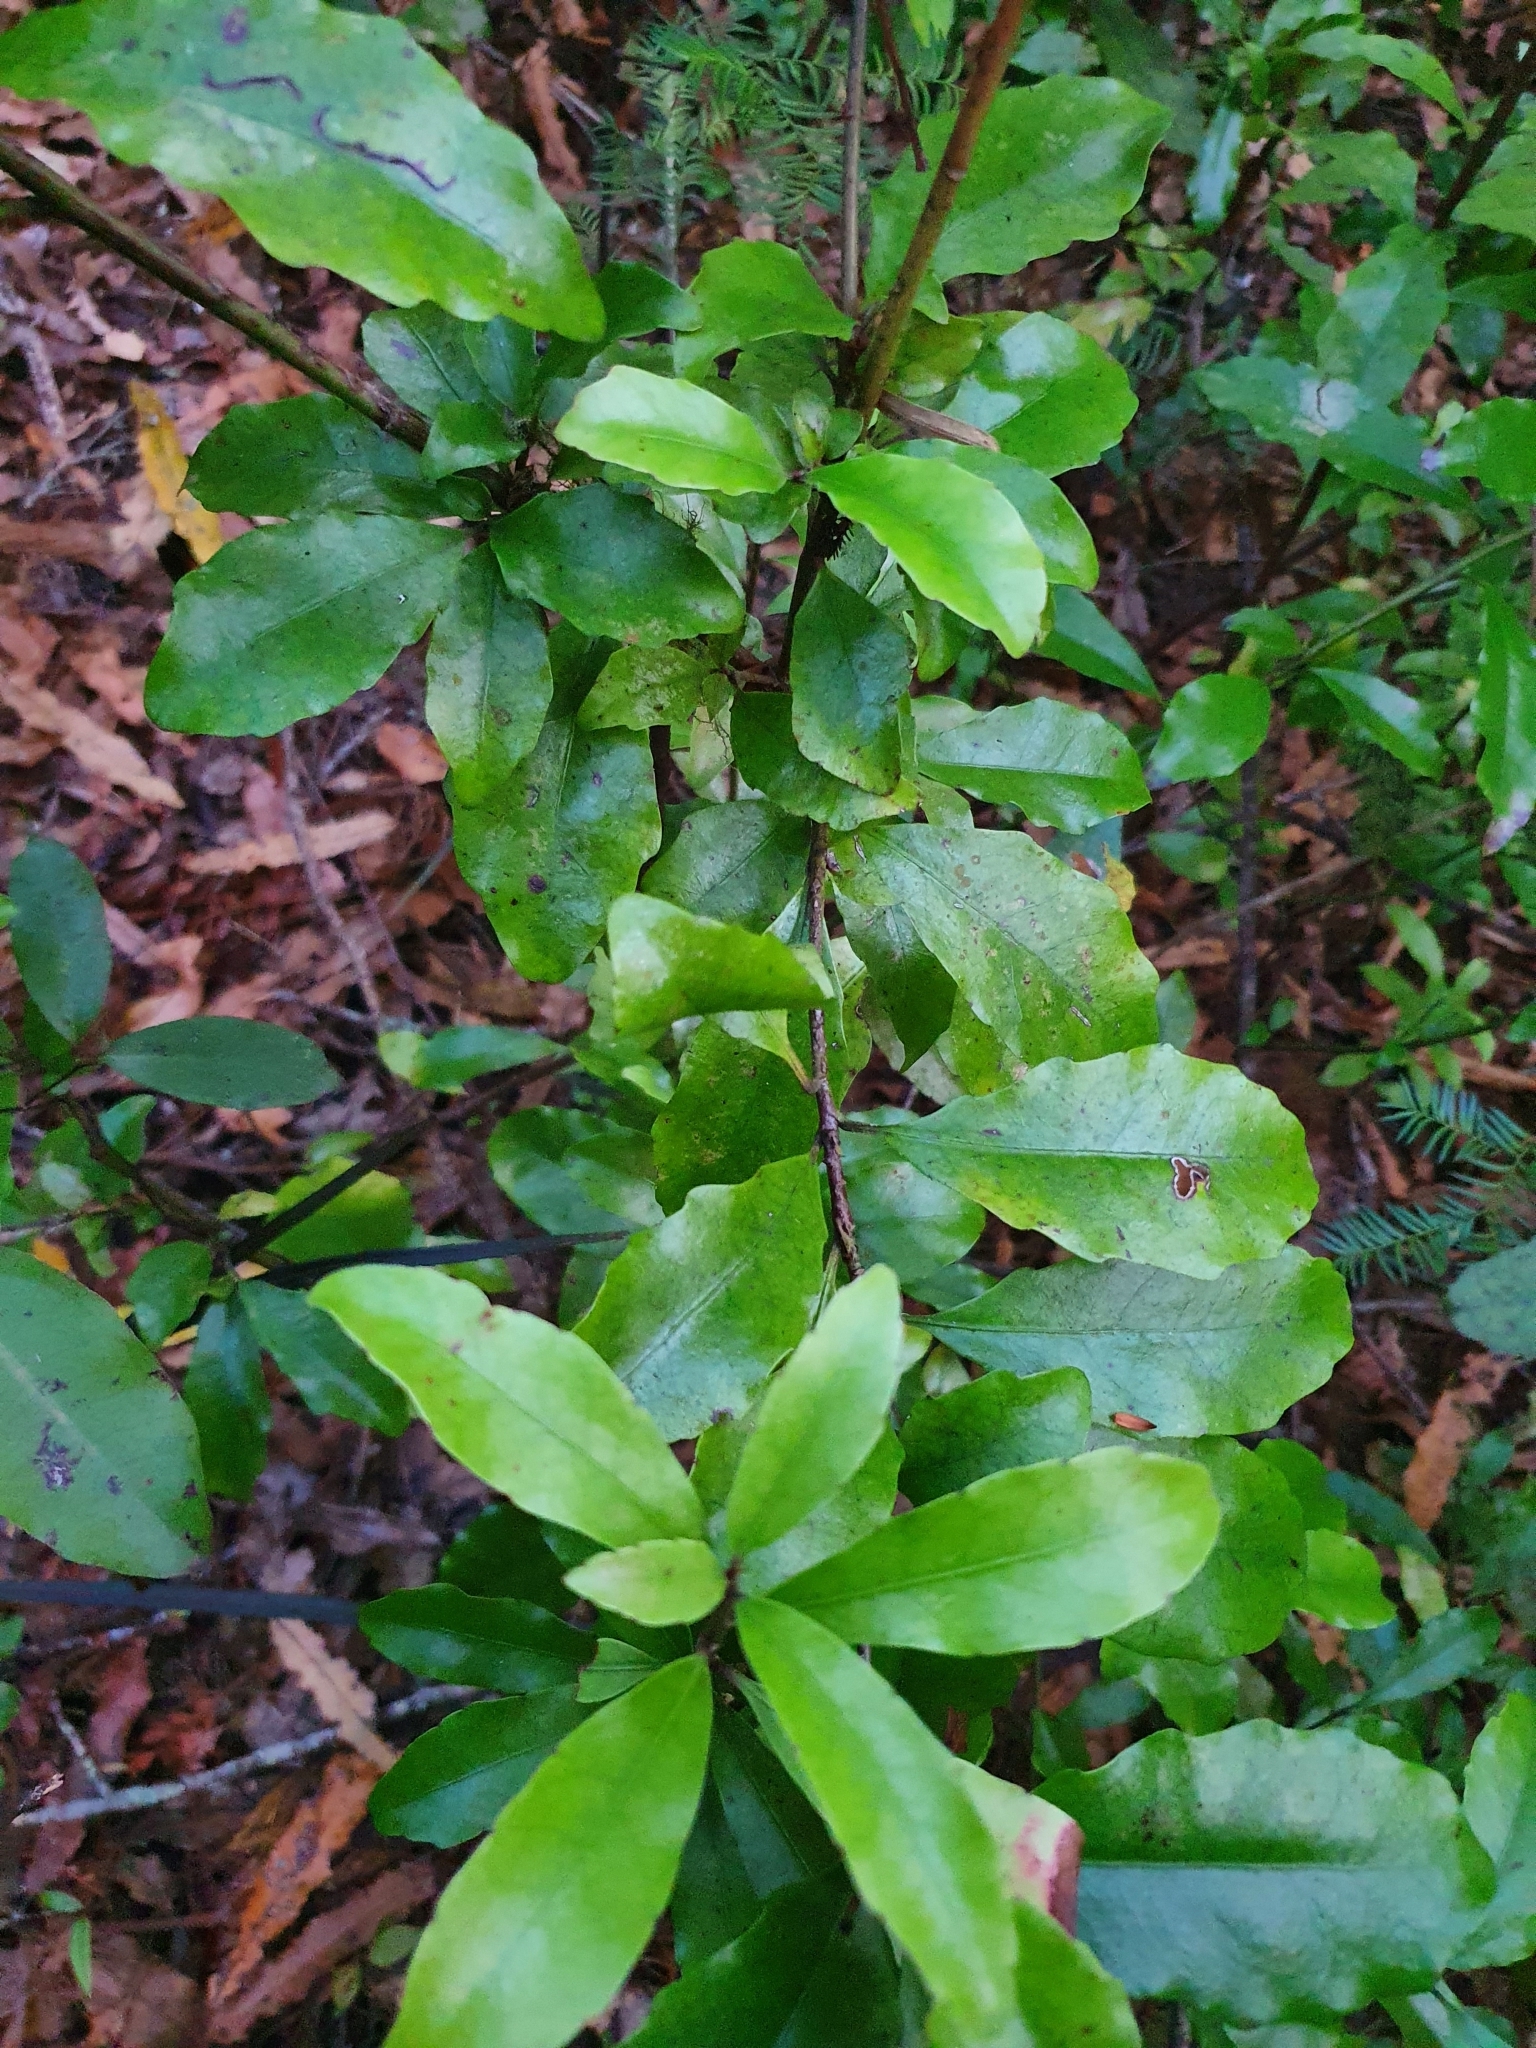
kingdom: Plantae
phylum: Tracheophyta
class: Magnoliopsida
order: Asterales
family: Alseuosmiaceae
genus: Alseuosmia
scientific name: Alseuosmia macrophylla
